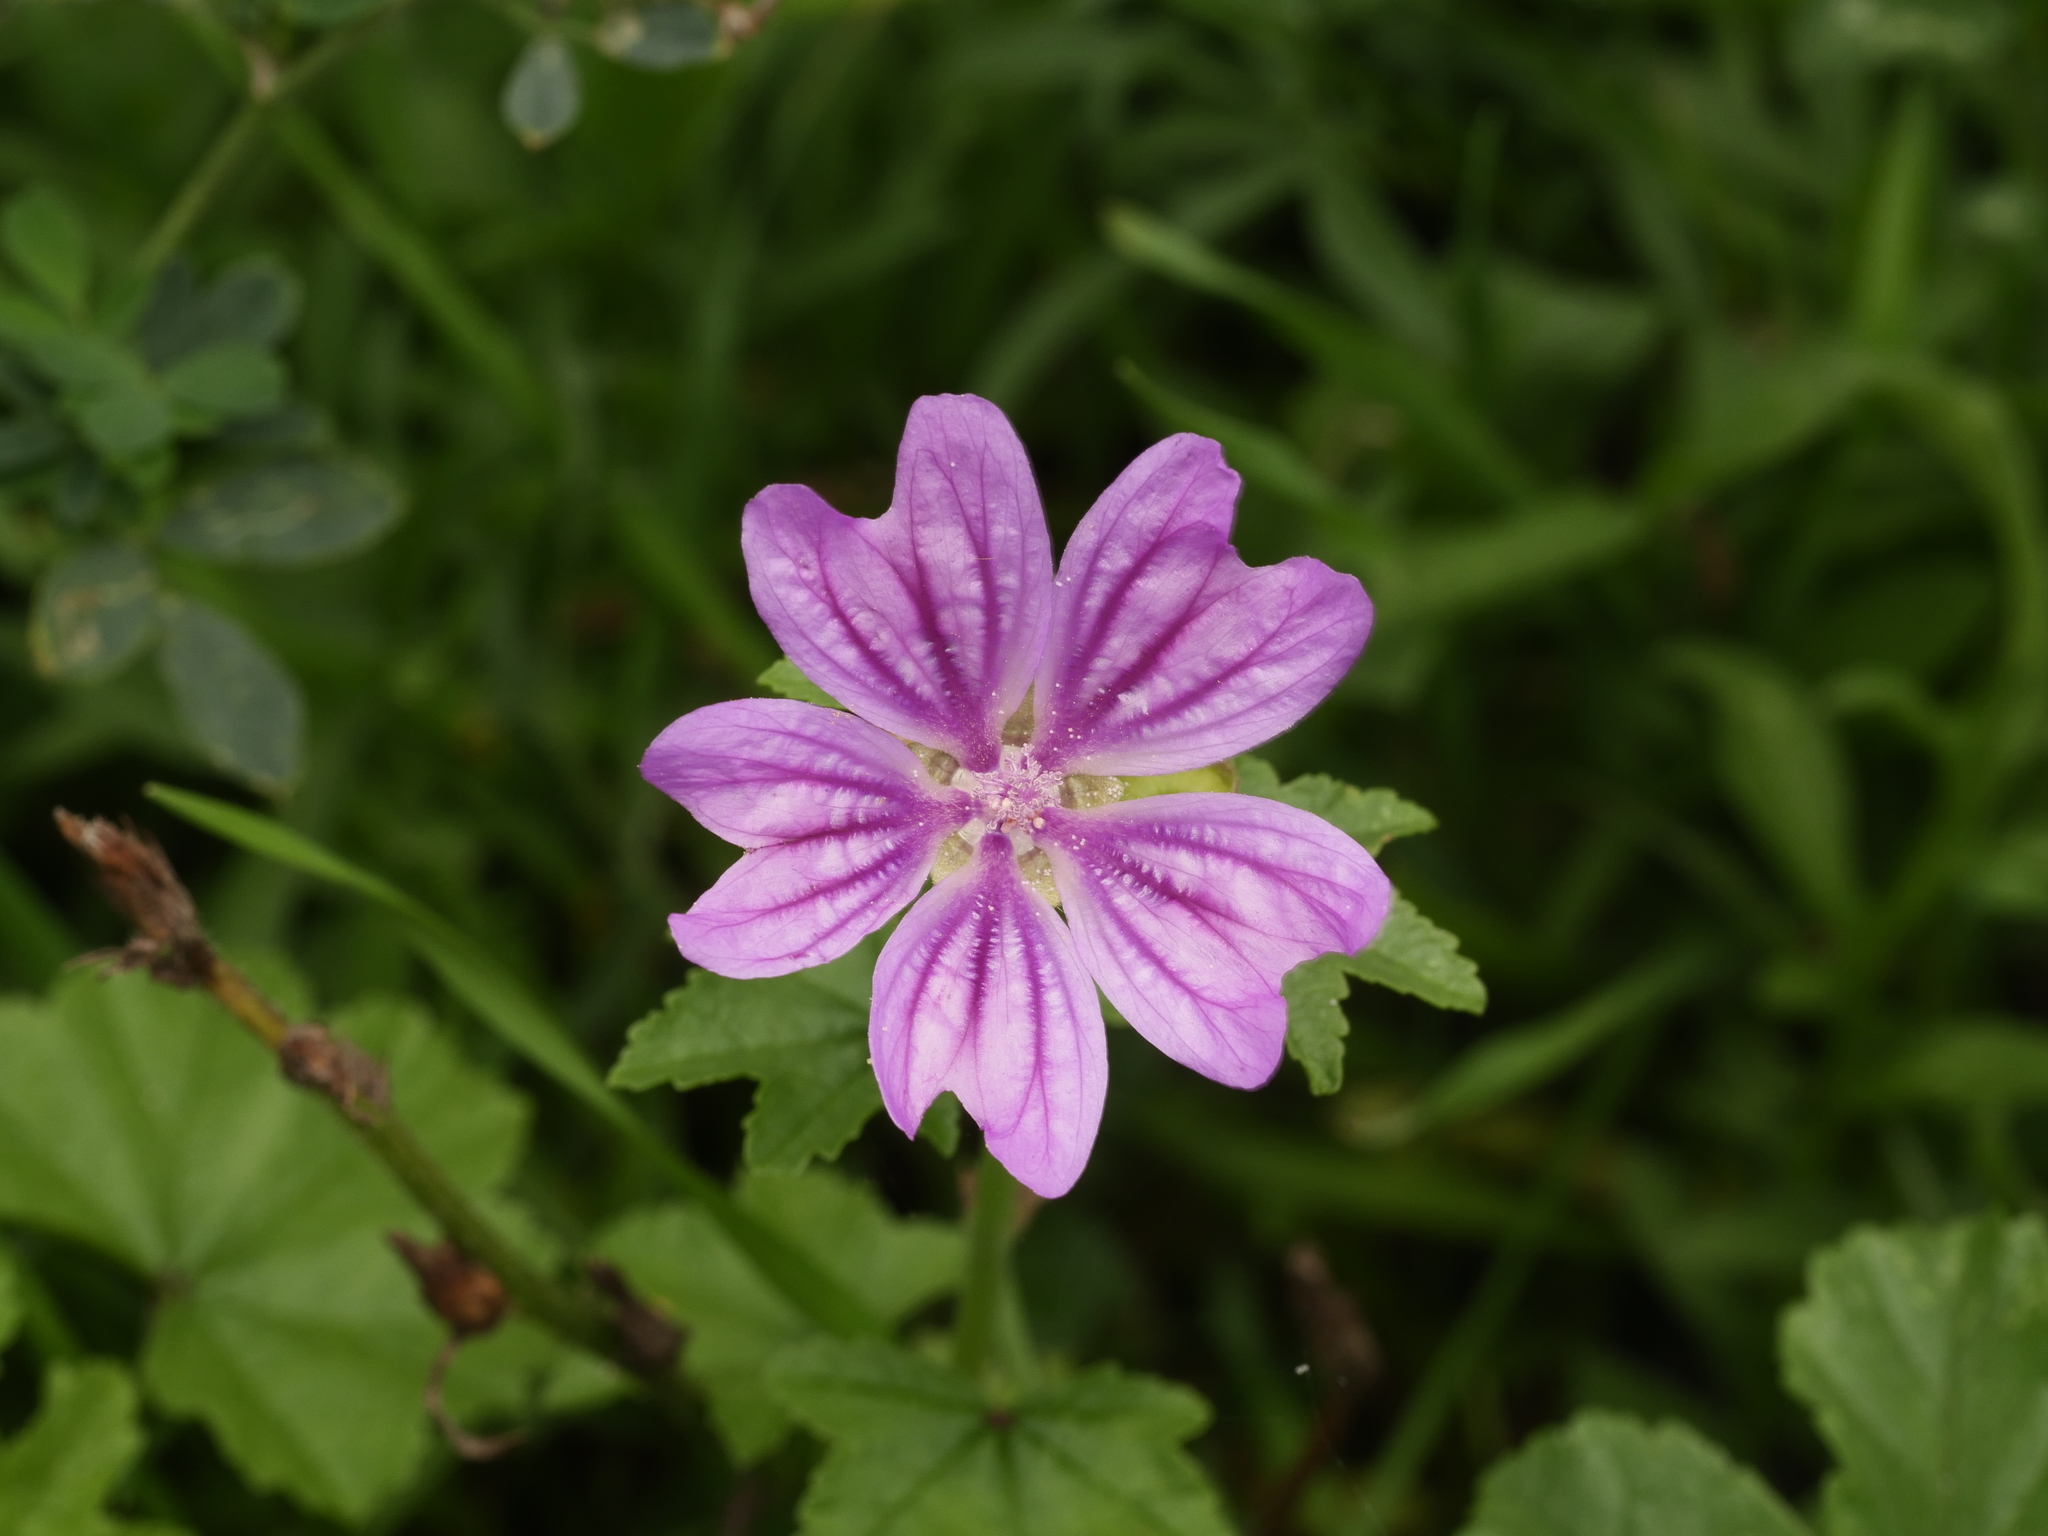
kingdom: Plantae
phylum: Tracheophyta
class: Magnoliopsida
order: Malvales
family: Malvaceae
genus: Malva
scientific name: Malva sylvestris
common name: Common mallow
